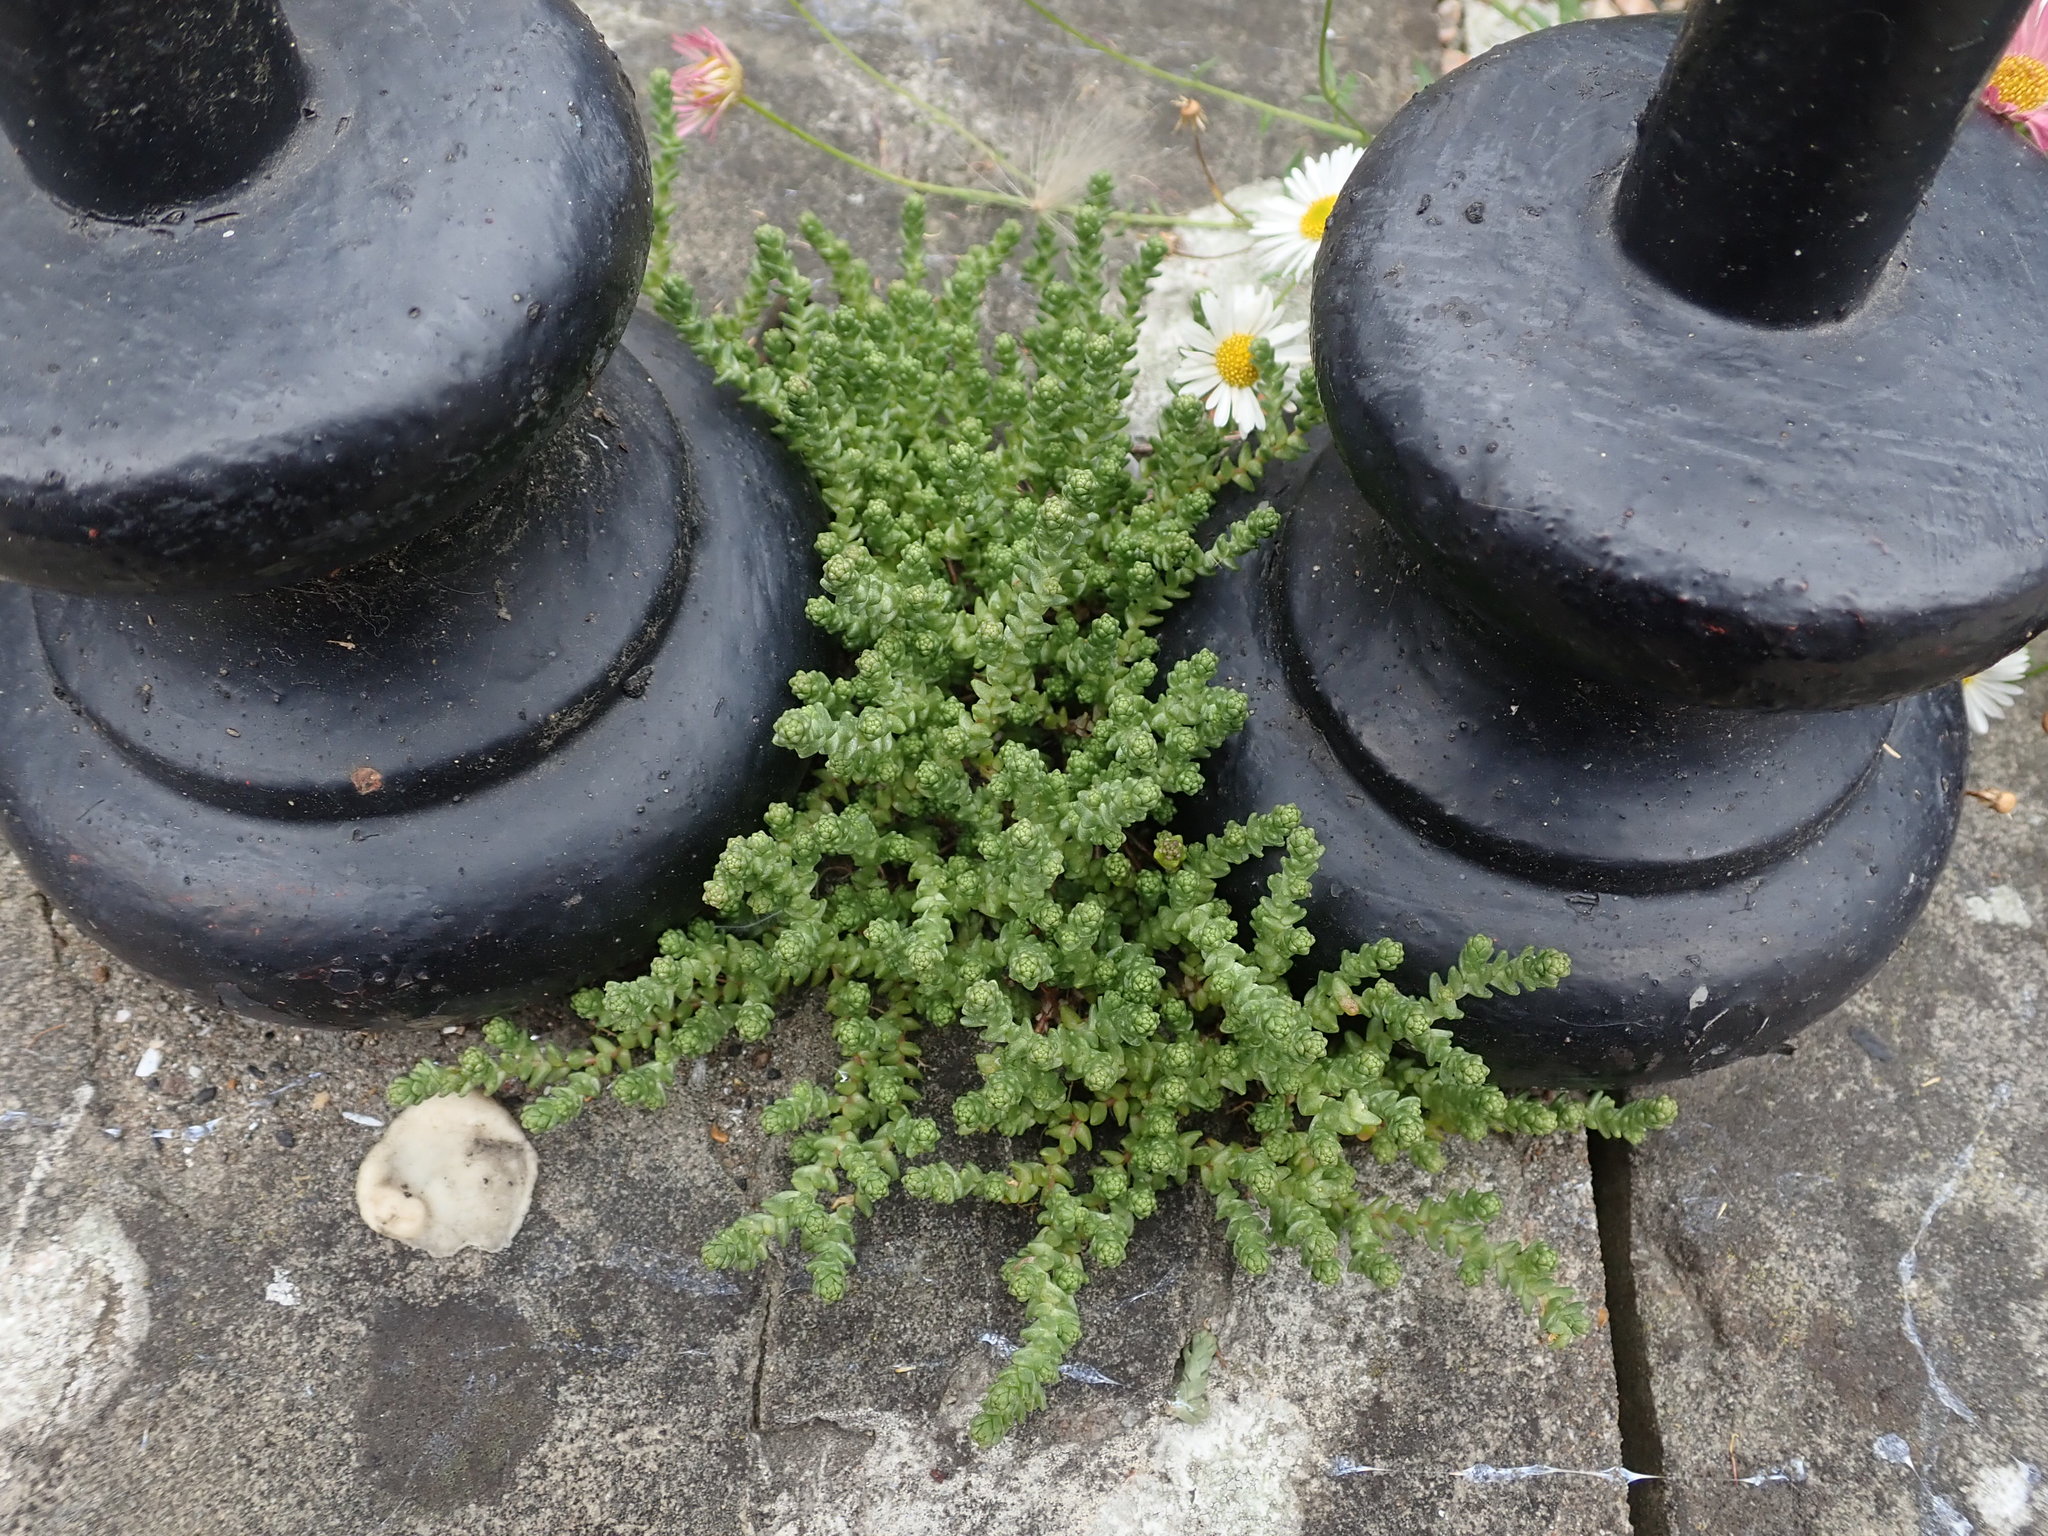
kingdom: Plantae
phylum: Tracheophyta
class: Magnoliopsida
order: Saxifragales
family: Crassulaceae
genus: Sedum
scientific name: Sedum acre
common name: Biting stonecrop
